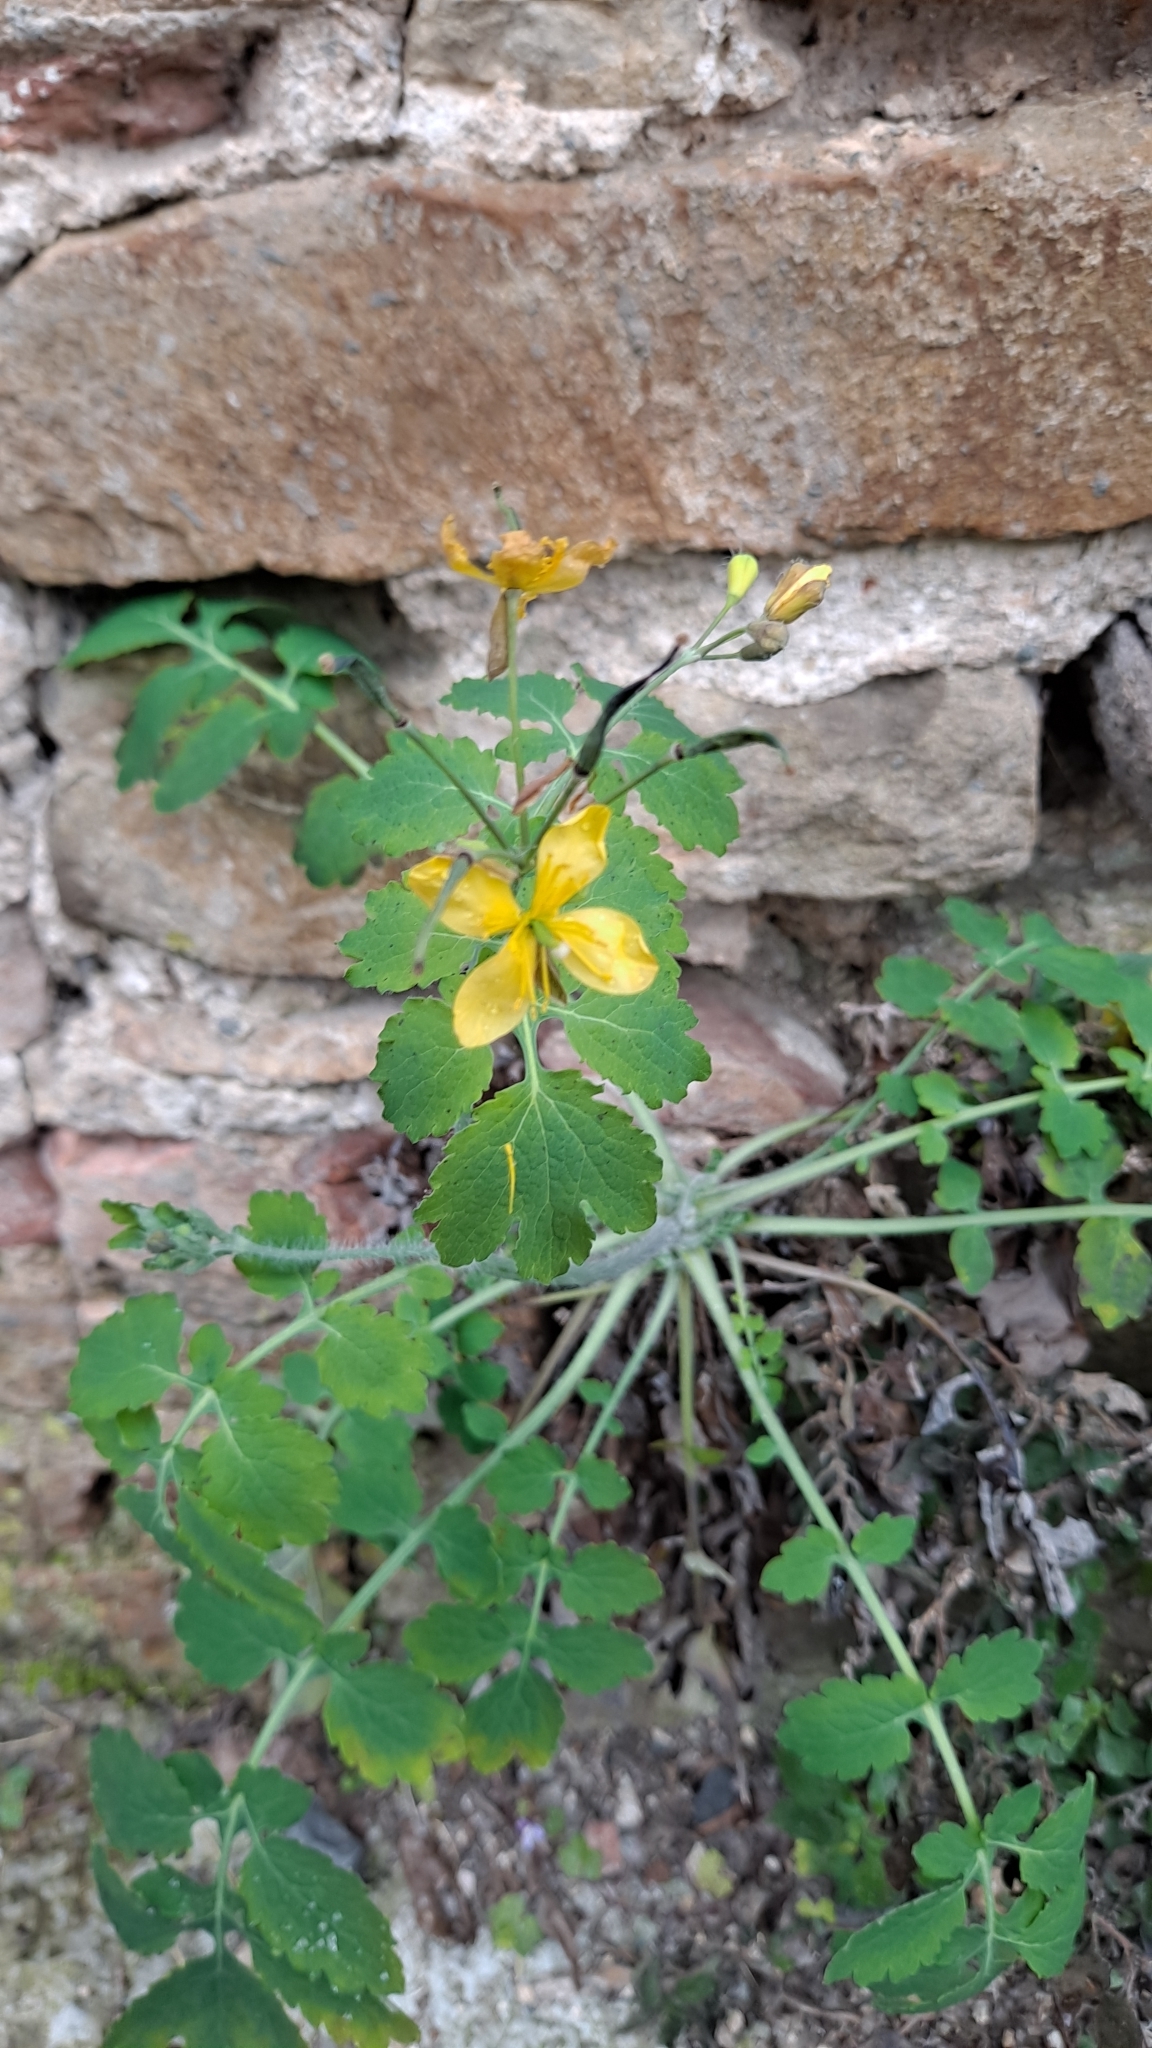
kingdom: Plantae
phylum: Tracheophyta
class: Magnoliopsida
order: Ranunculales
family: Papaveraceae
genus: Chelidonium
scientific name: Chelidonium majus
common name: Greater celandine
